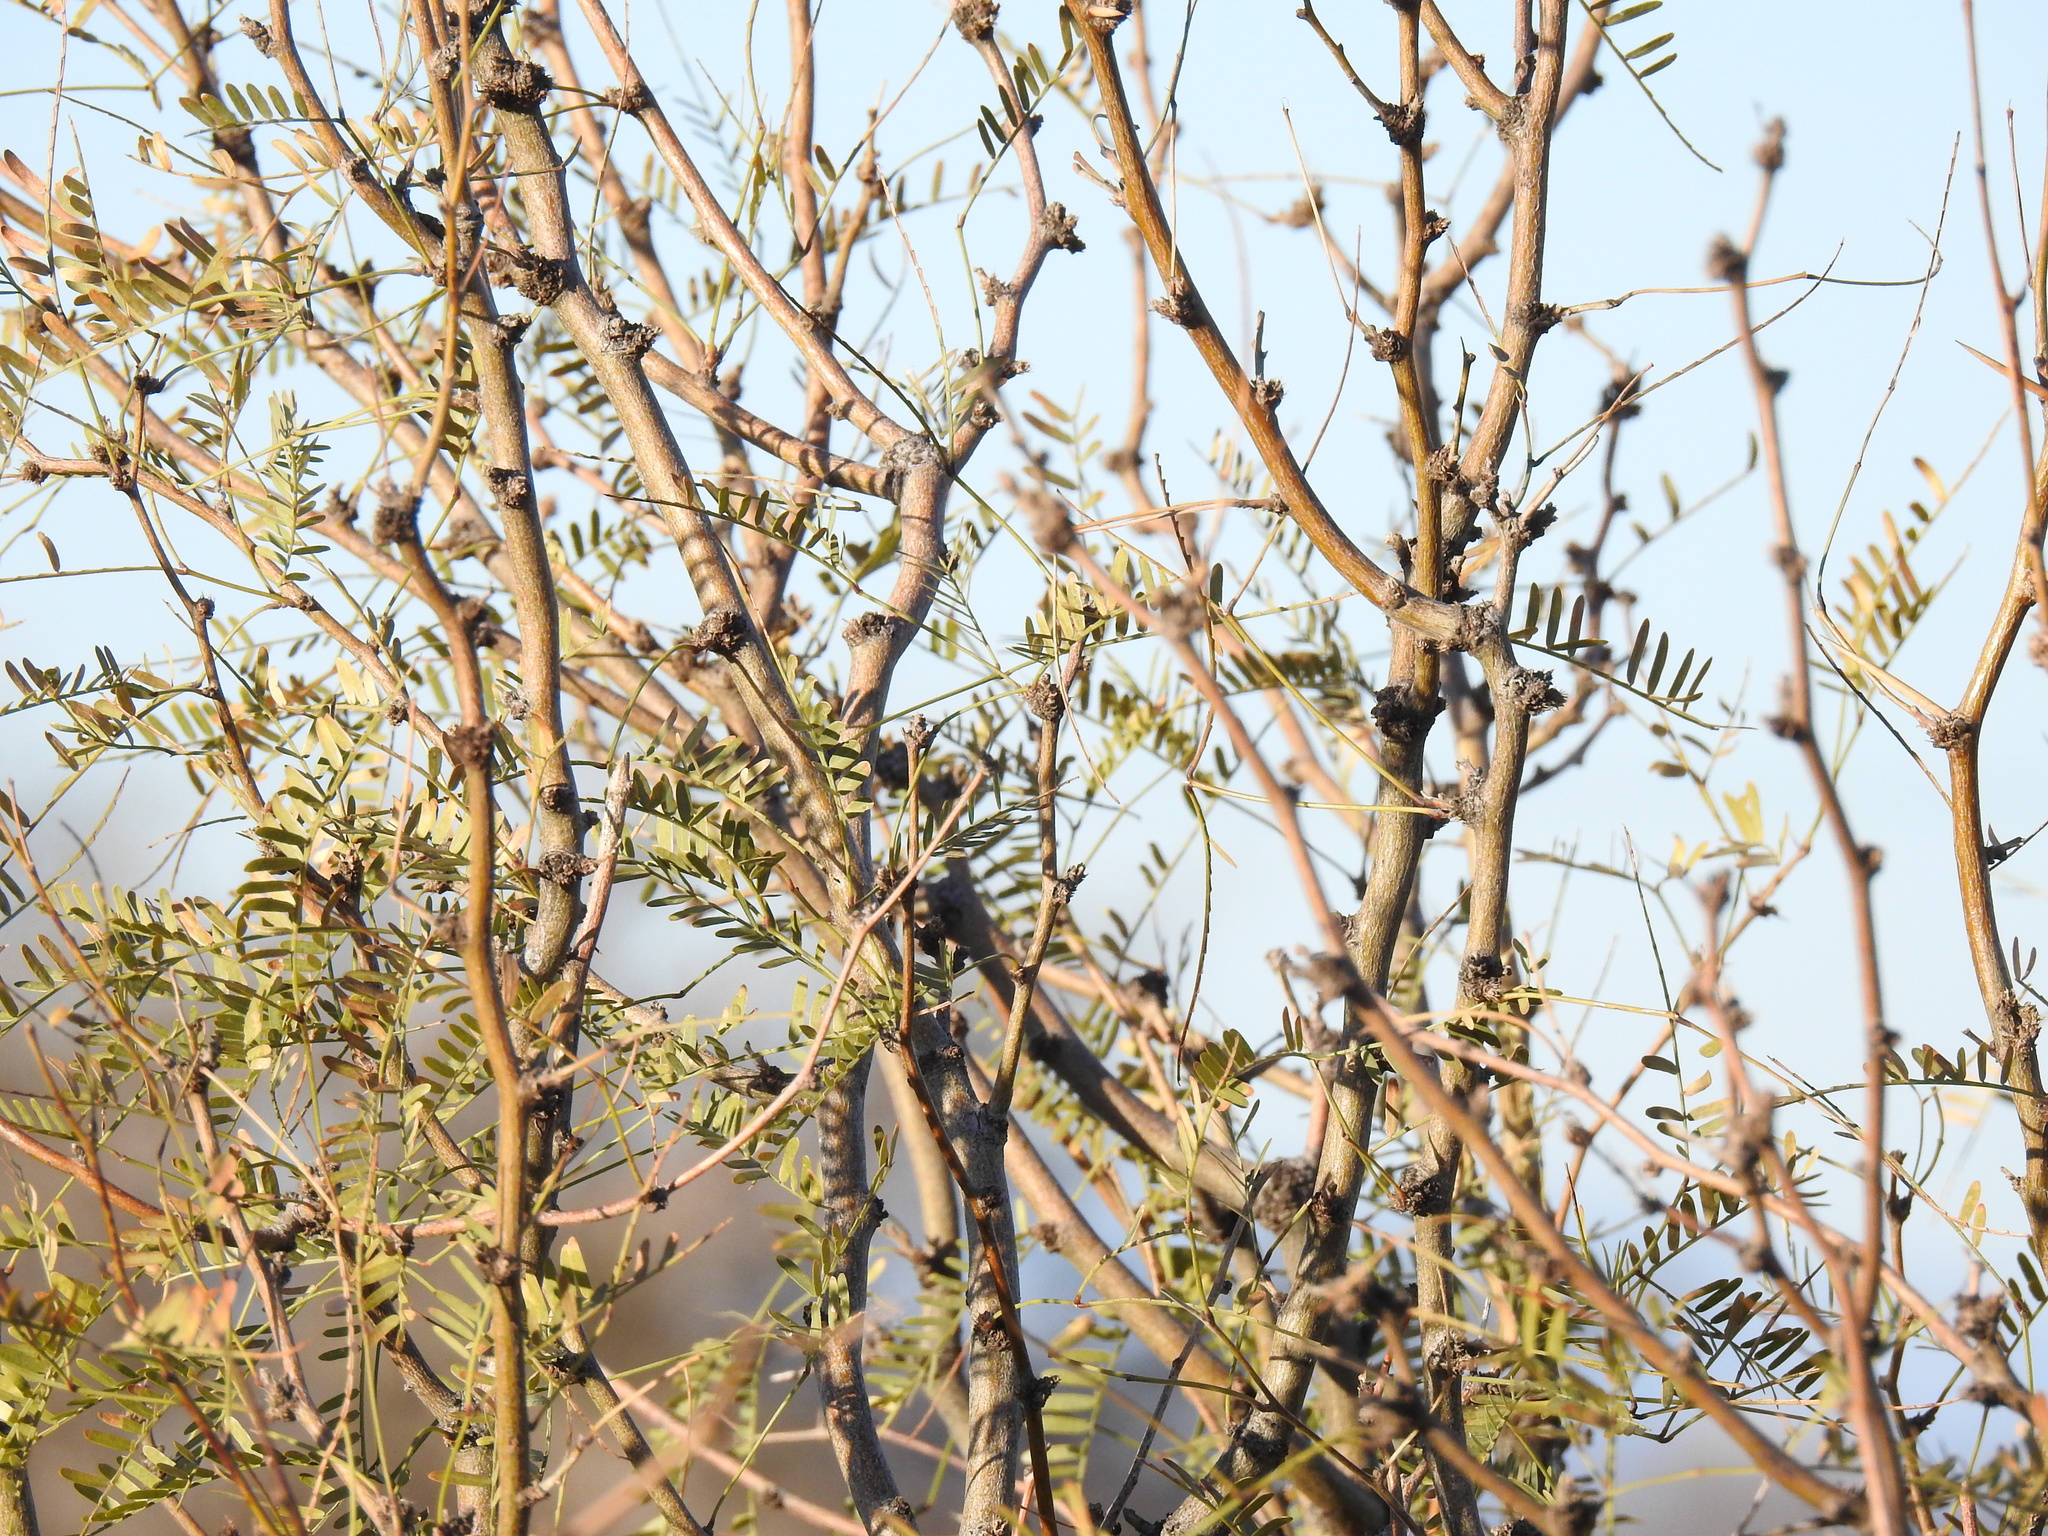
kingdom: Plantae
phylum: Tracheophyta
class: Magnoliopsida
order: Fabales
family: Fabaceae
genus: Prosopis
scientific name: Prosopis glandulosa
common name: Honey mesquite
